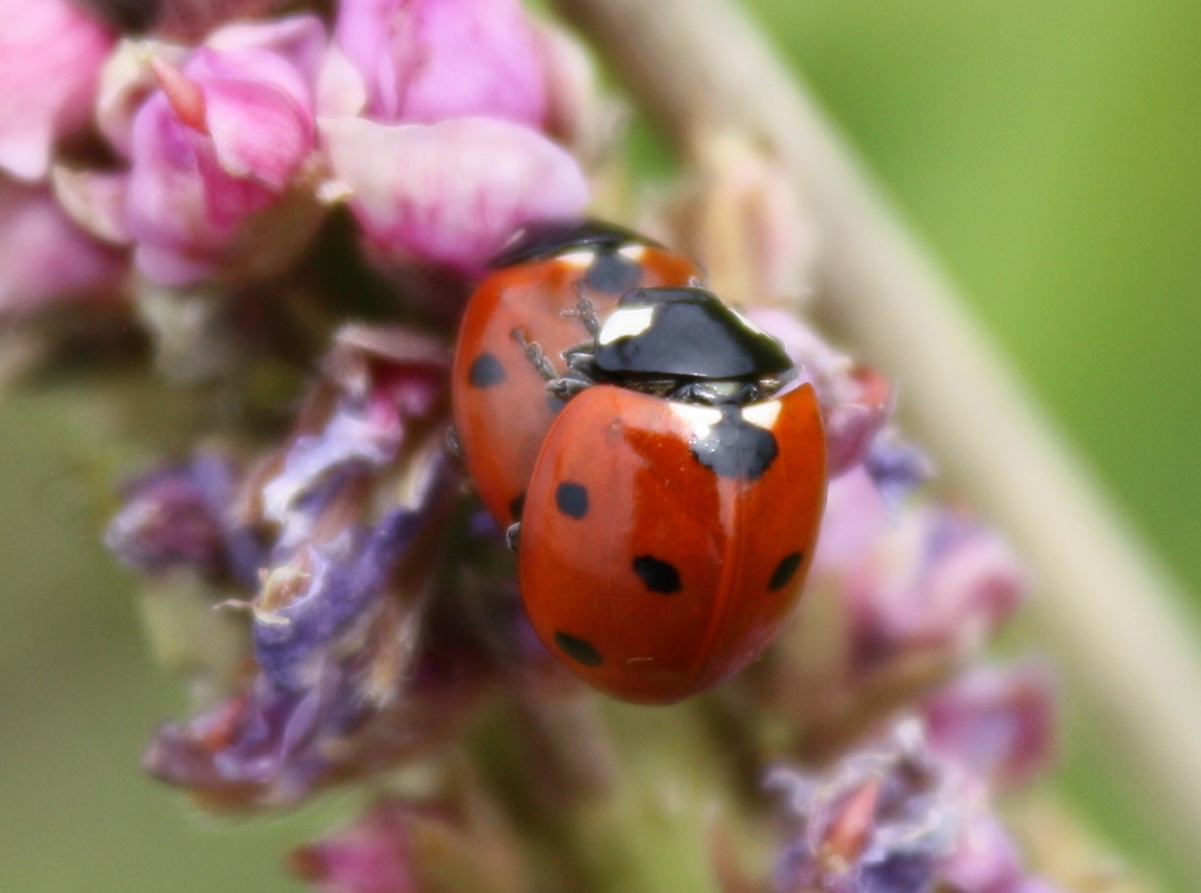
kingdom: Animalia
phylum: Arthropoda
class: Insecta
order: Coleoptera
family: Coccinellidae
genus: Coccinella
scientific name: Coccinella septempunctata
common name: Sevenspotted lady beetle
